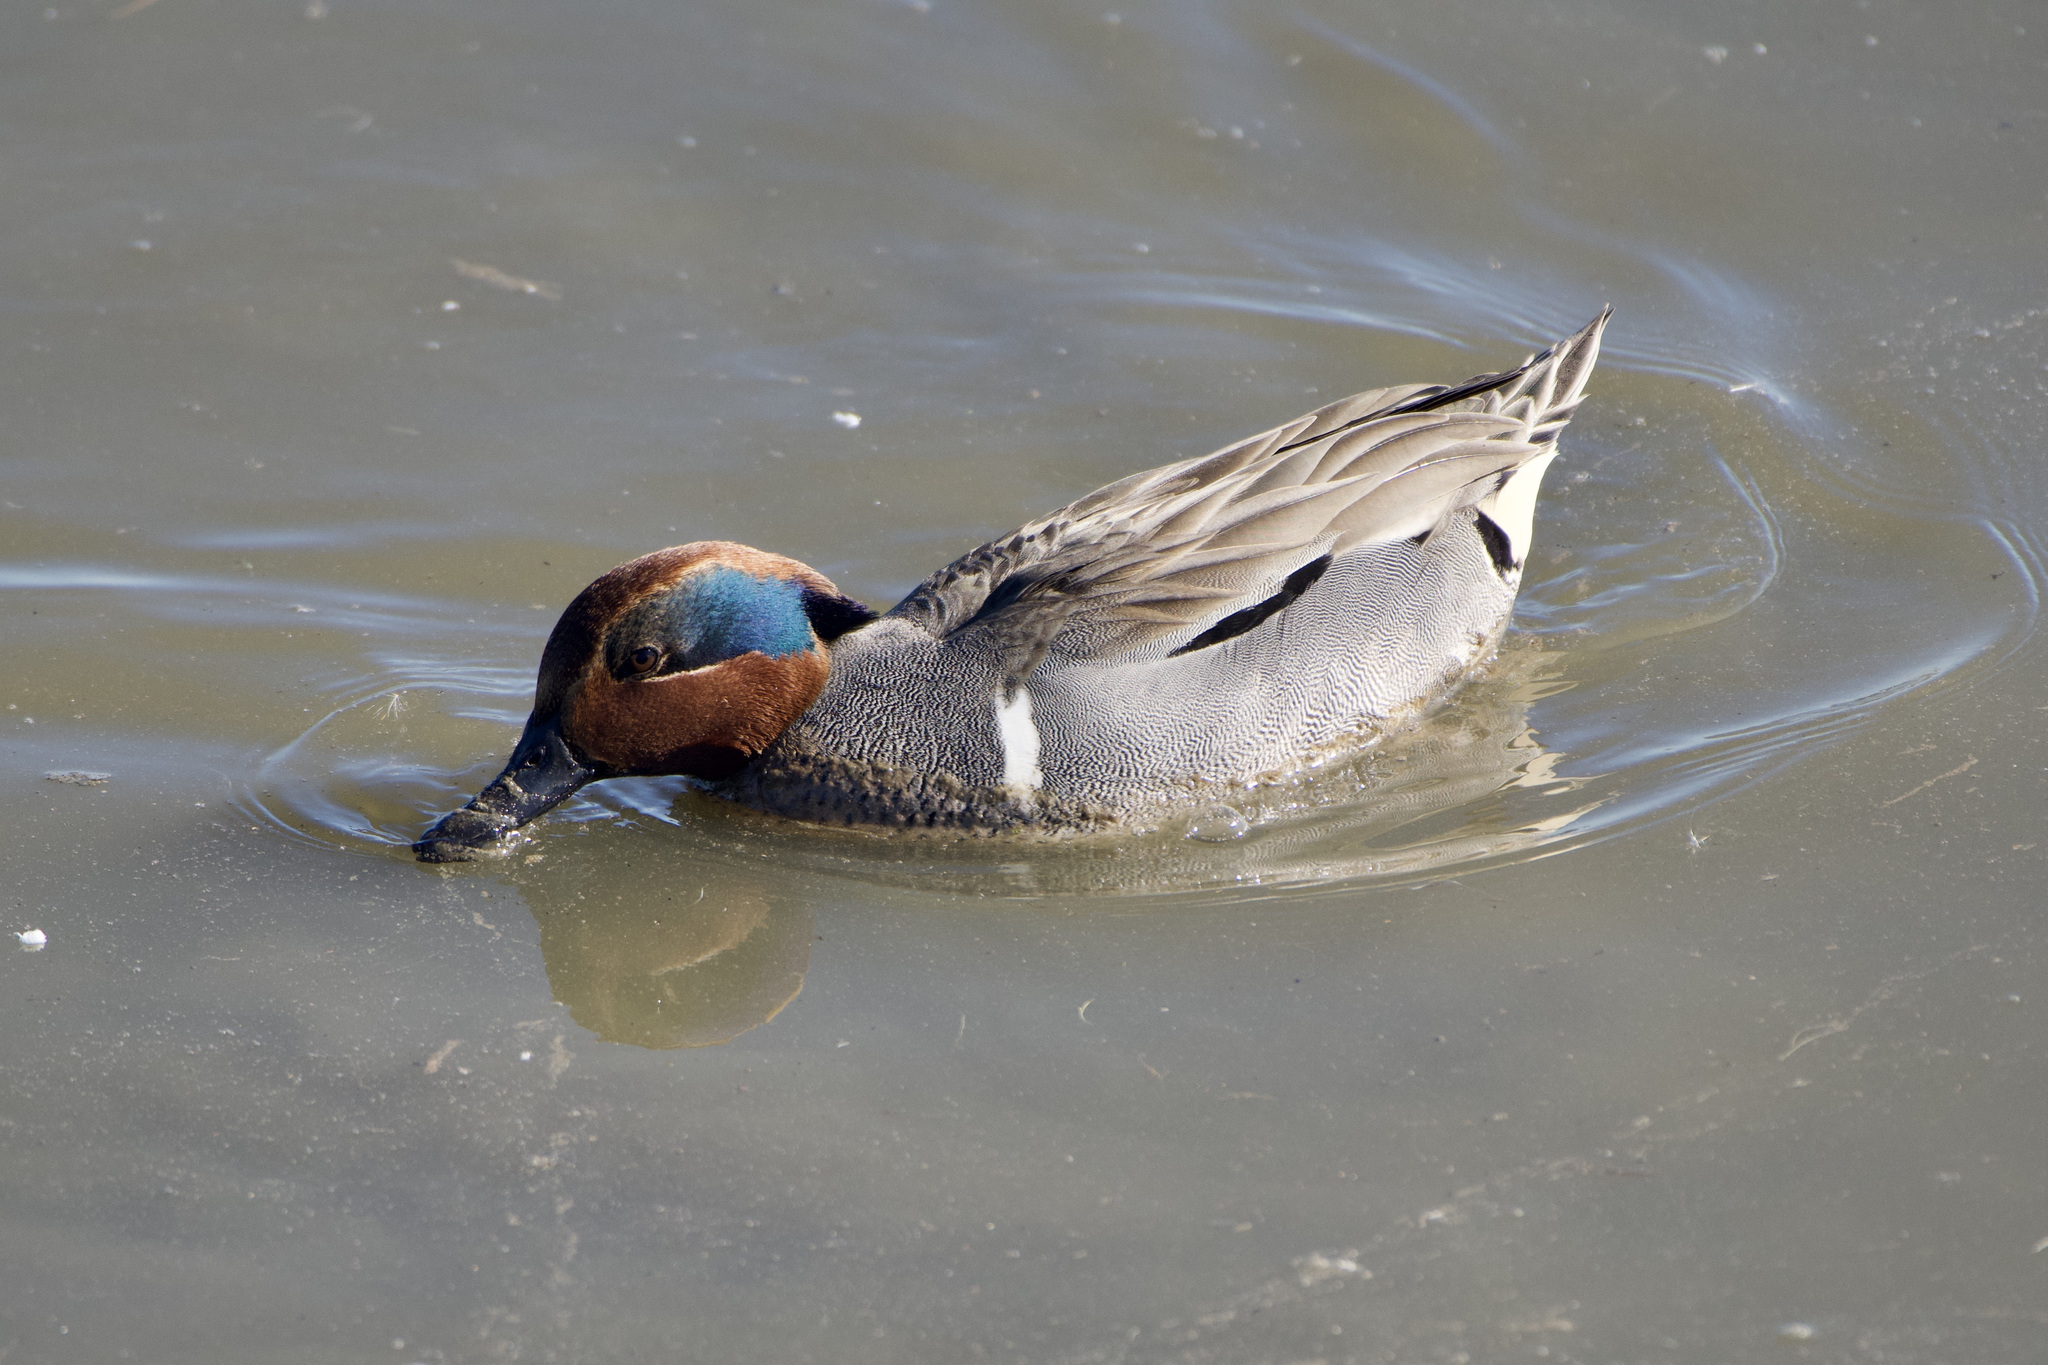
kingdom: Animalia
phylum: Chordata
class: Aves
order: Anseriformes
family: Anatidae
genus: Anas
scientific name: Anas carolinensis
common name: Green-winged teal
